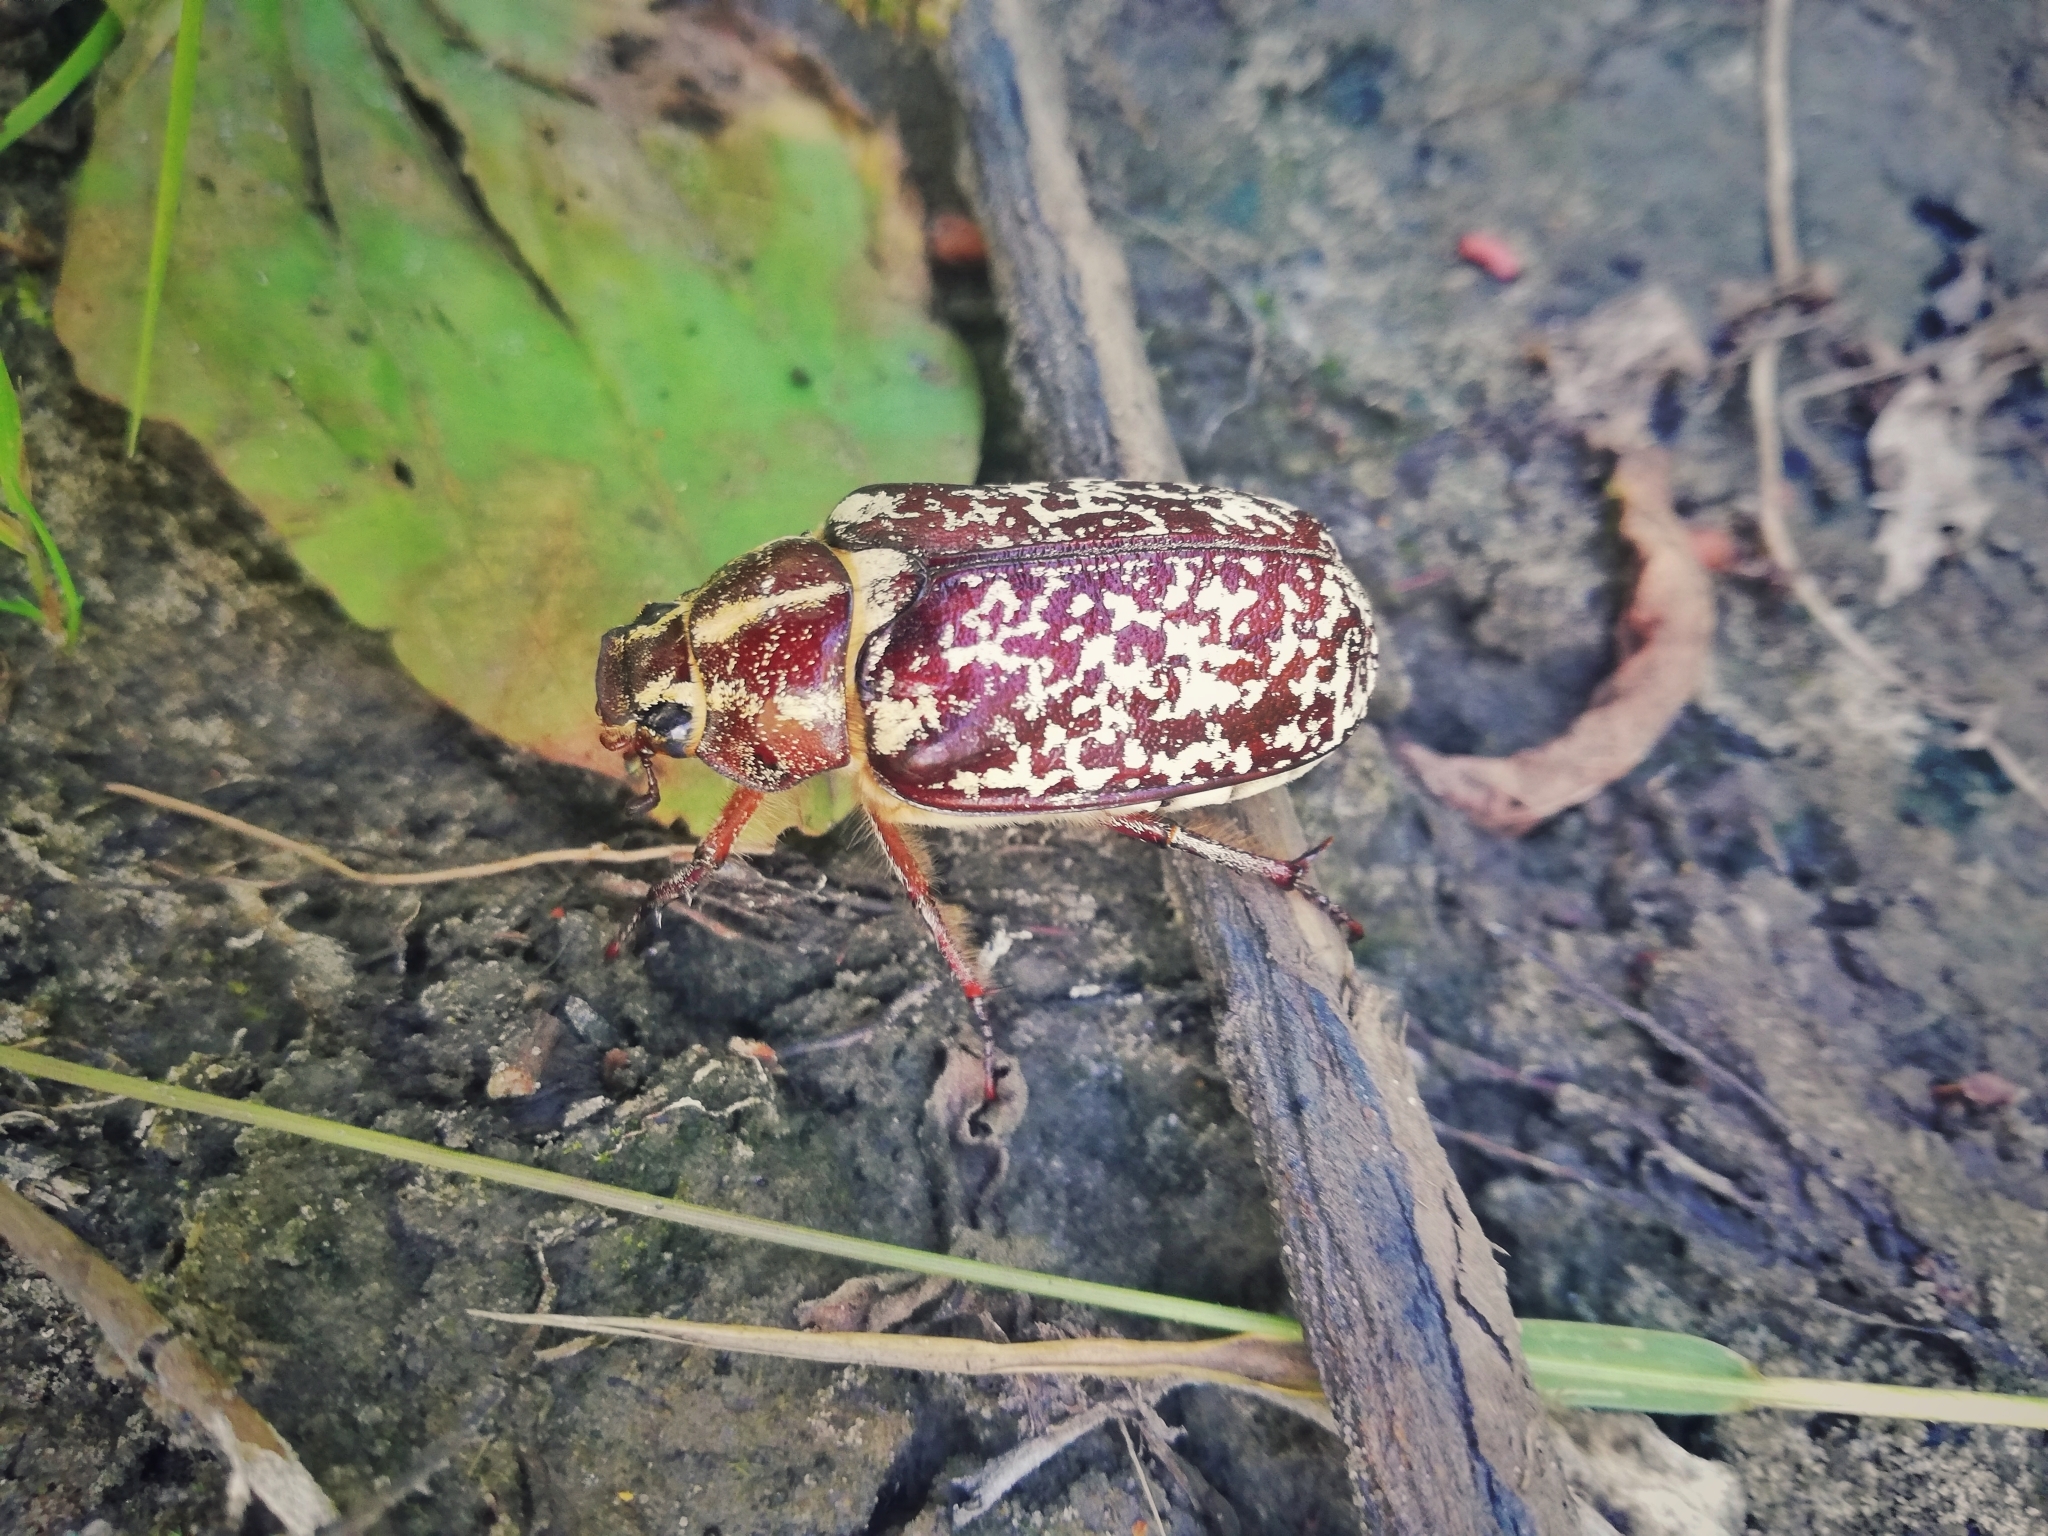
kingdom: Animalia
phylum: Arthropoda
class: Insecta
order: Coleoptera
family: Scarabaeidae
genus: Polyphylla
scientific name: Polyphylla fullo
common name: Pine chafer
